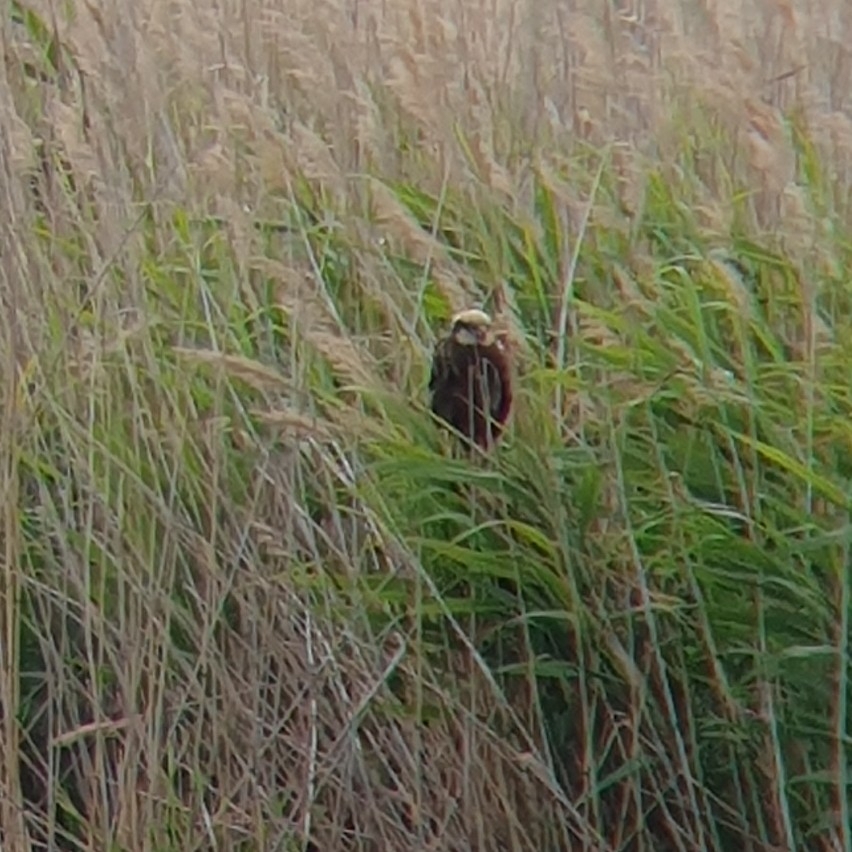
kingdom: Animalia
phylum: Chordata
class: Aves
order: Accipitriformes
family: Accipitridae
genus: Circus
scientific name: Circus aeruginosus
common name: Western marsh harrier
